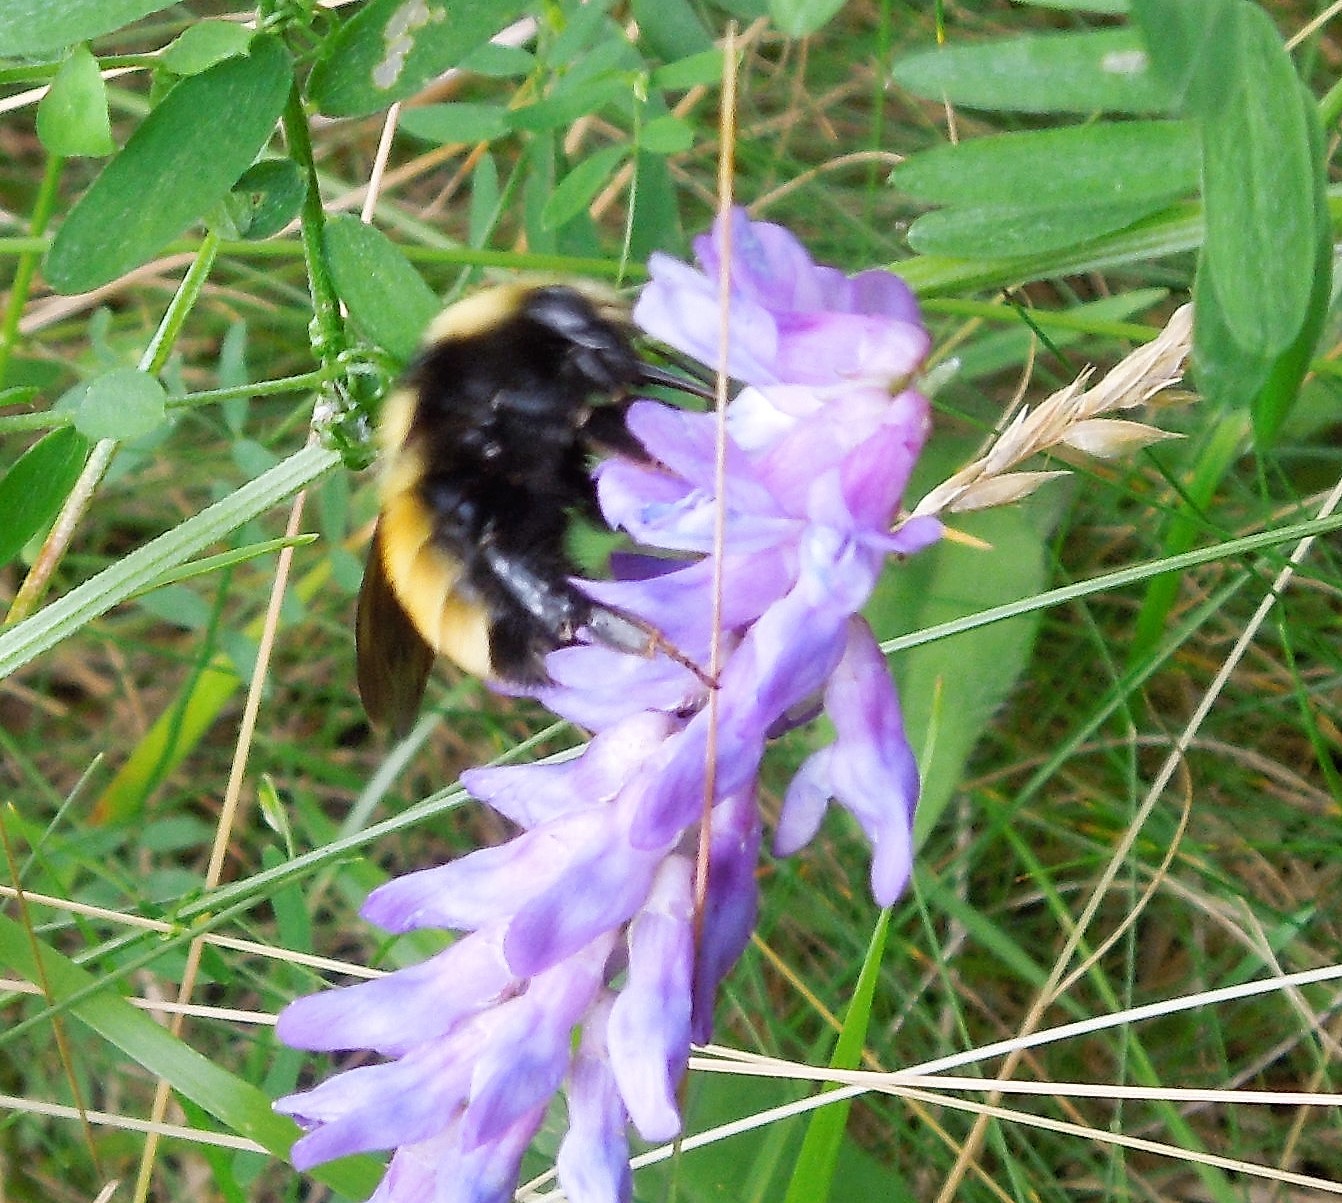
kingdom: Animalia
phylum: Arthropoda
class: Insecta
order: Hymenoptera
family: Apidae
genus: Bombus
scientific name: Bombus borealis
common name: Northern amber bumble bee
